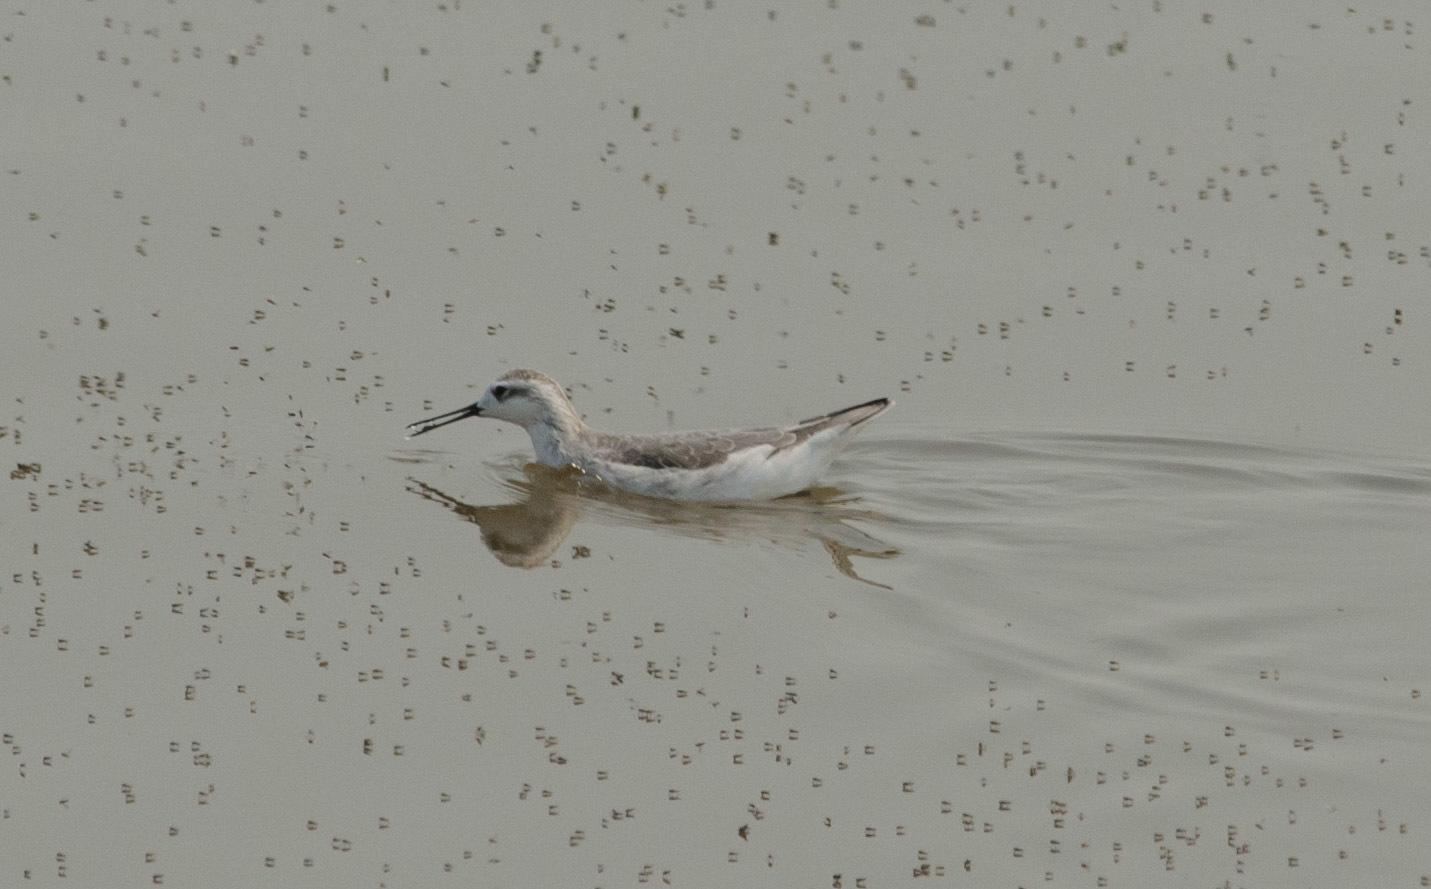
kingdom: Animalia
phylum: Chordata
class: Aves
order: Charadriiformes
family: Scolopacidae
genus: Phalaropus
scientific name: Phalaropus tricolor
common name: Wilson's phalarope
